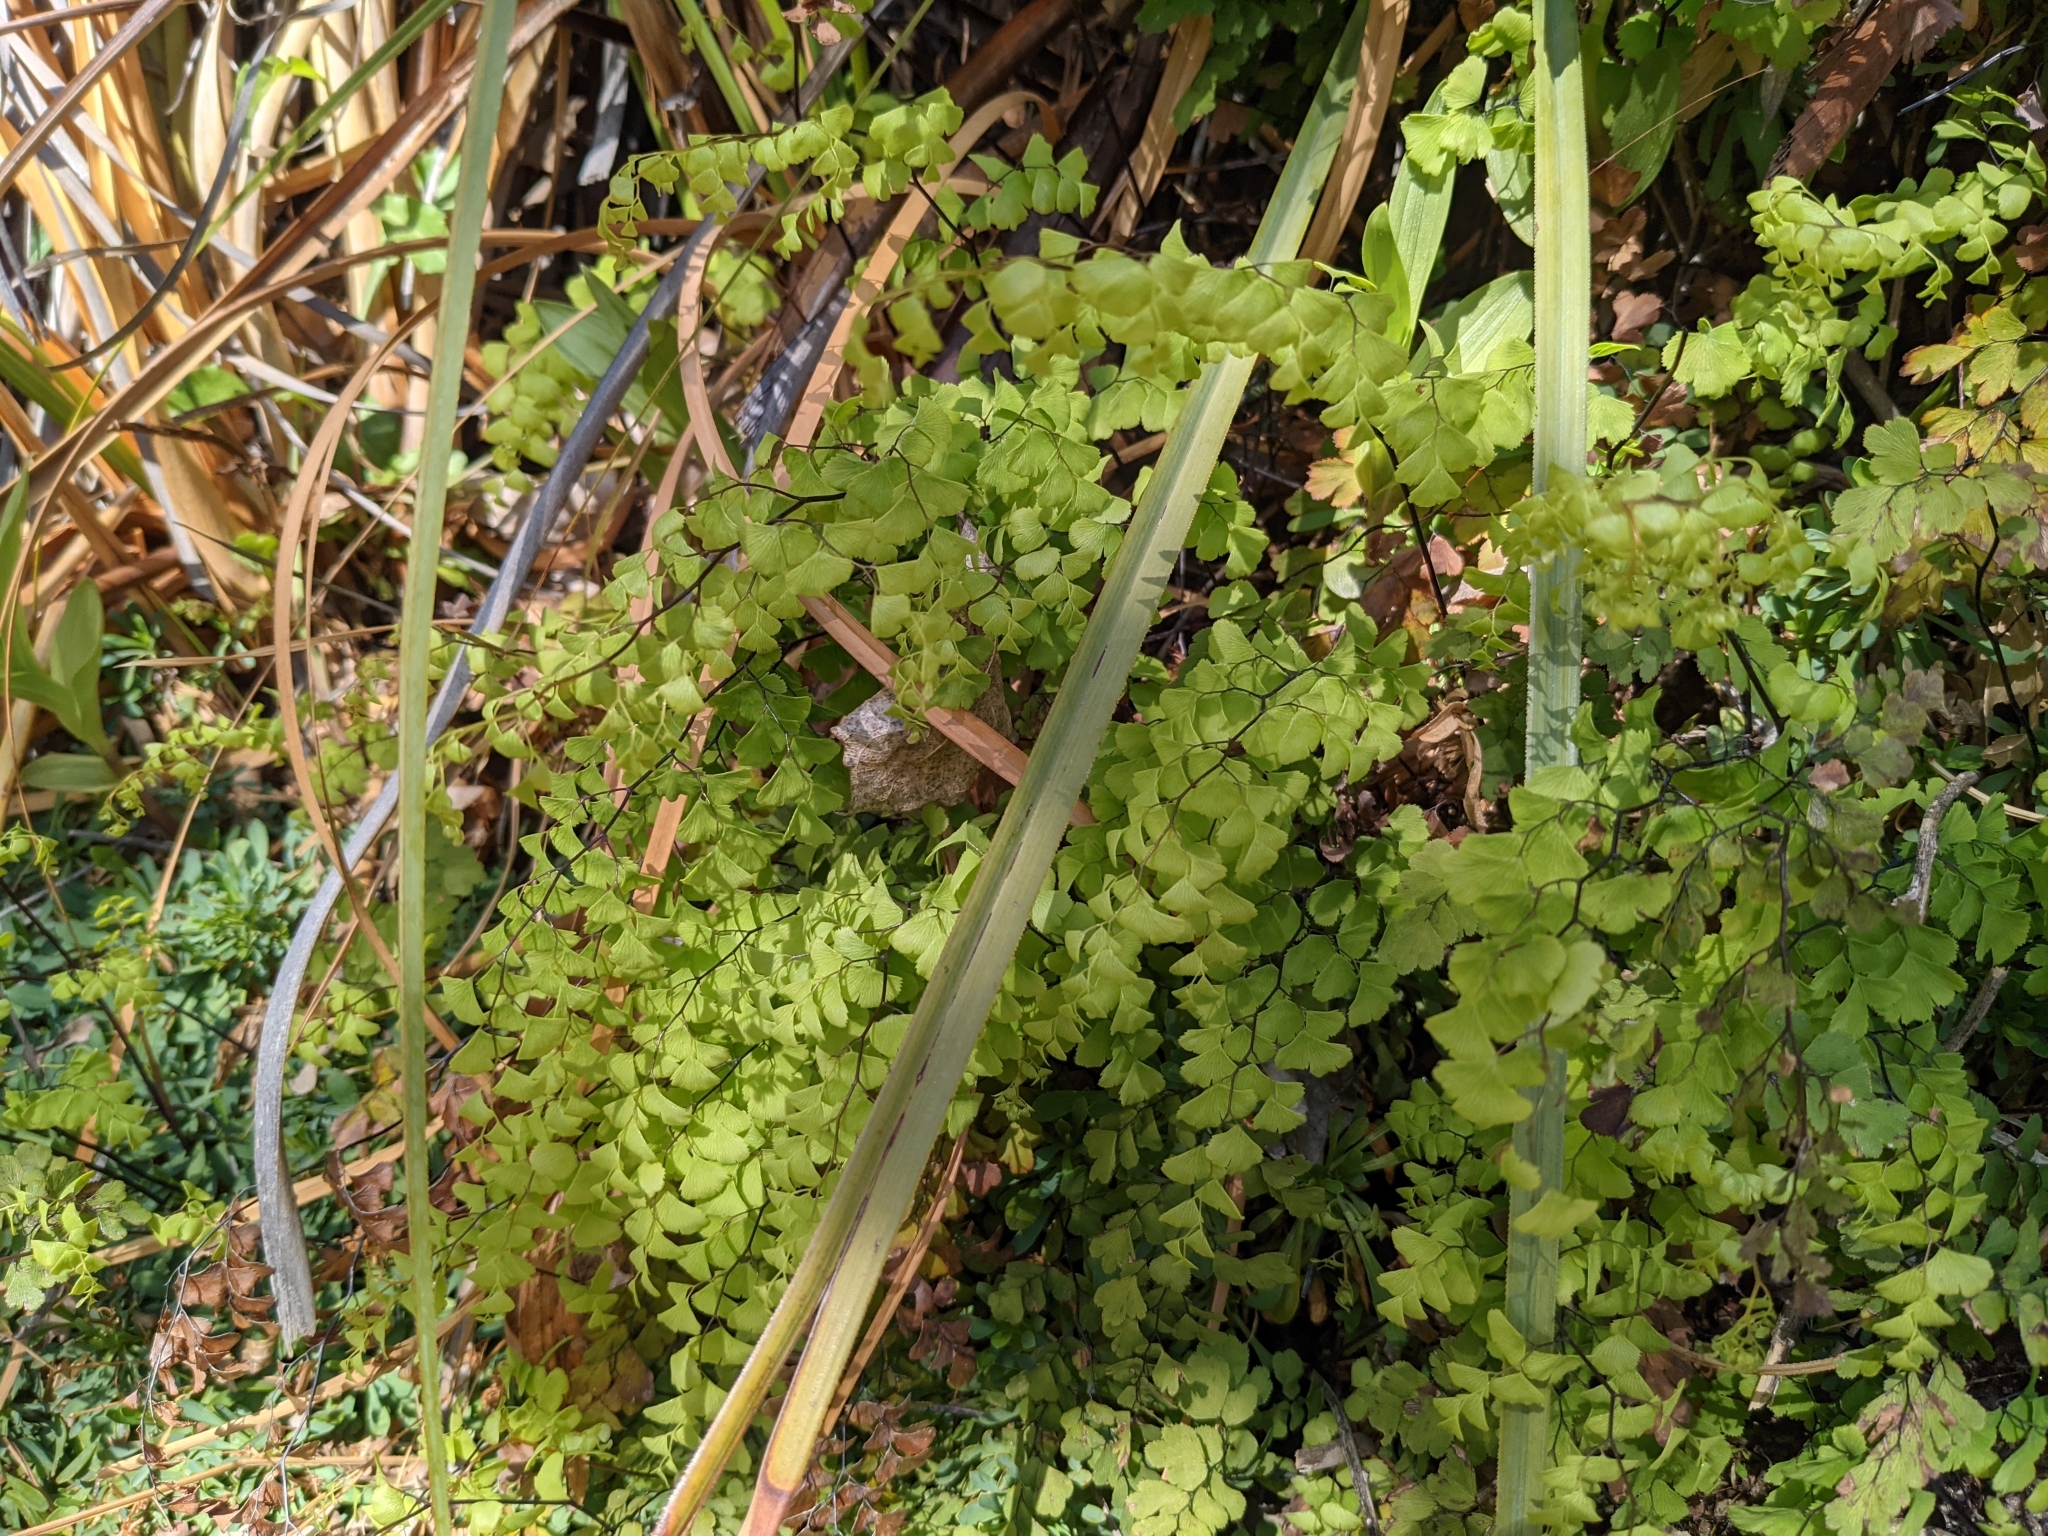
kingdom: Plantae
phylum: Tracheophyta
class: Polypodiopsida
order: Polypodiales
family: Pteridaceae
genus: Adiantum
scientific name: Adiantum capillus-veneris
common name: Maidenhair fern
